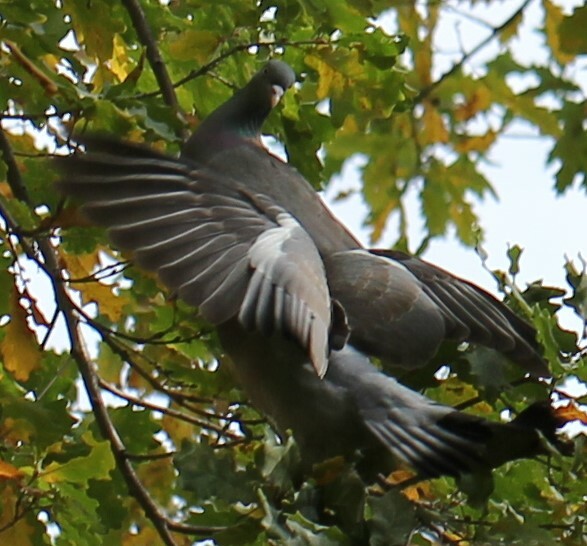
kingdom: Animalia
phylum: Chordata
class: Aves
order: Columbiformes
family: Columbidae
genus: Columba
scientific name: Columba palumbus
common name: Common wood pigeon
